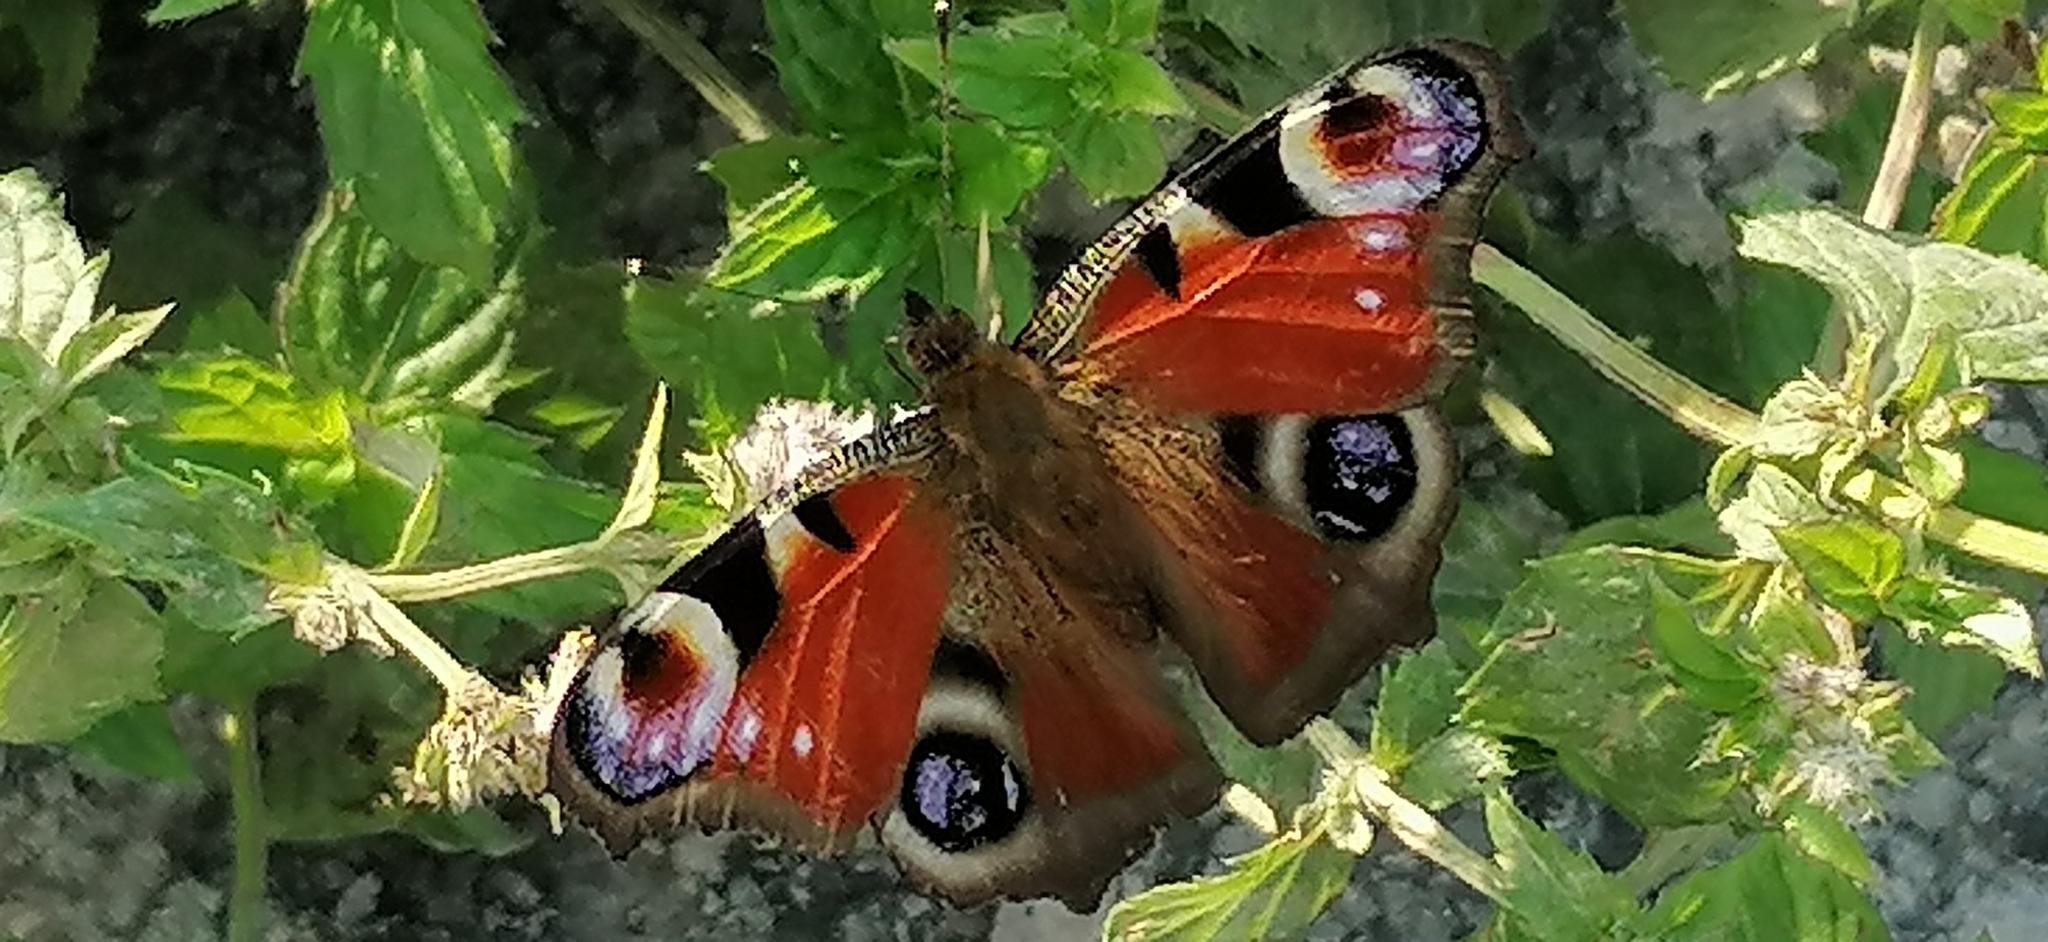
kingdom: Animalia
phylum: Arthropoda
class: Insecta
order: Lepidoptera
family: Nymphalidae
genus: Aglais
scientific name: Aglais io
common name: Peacock
